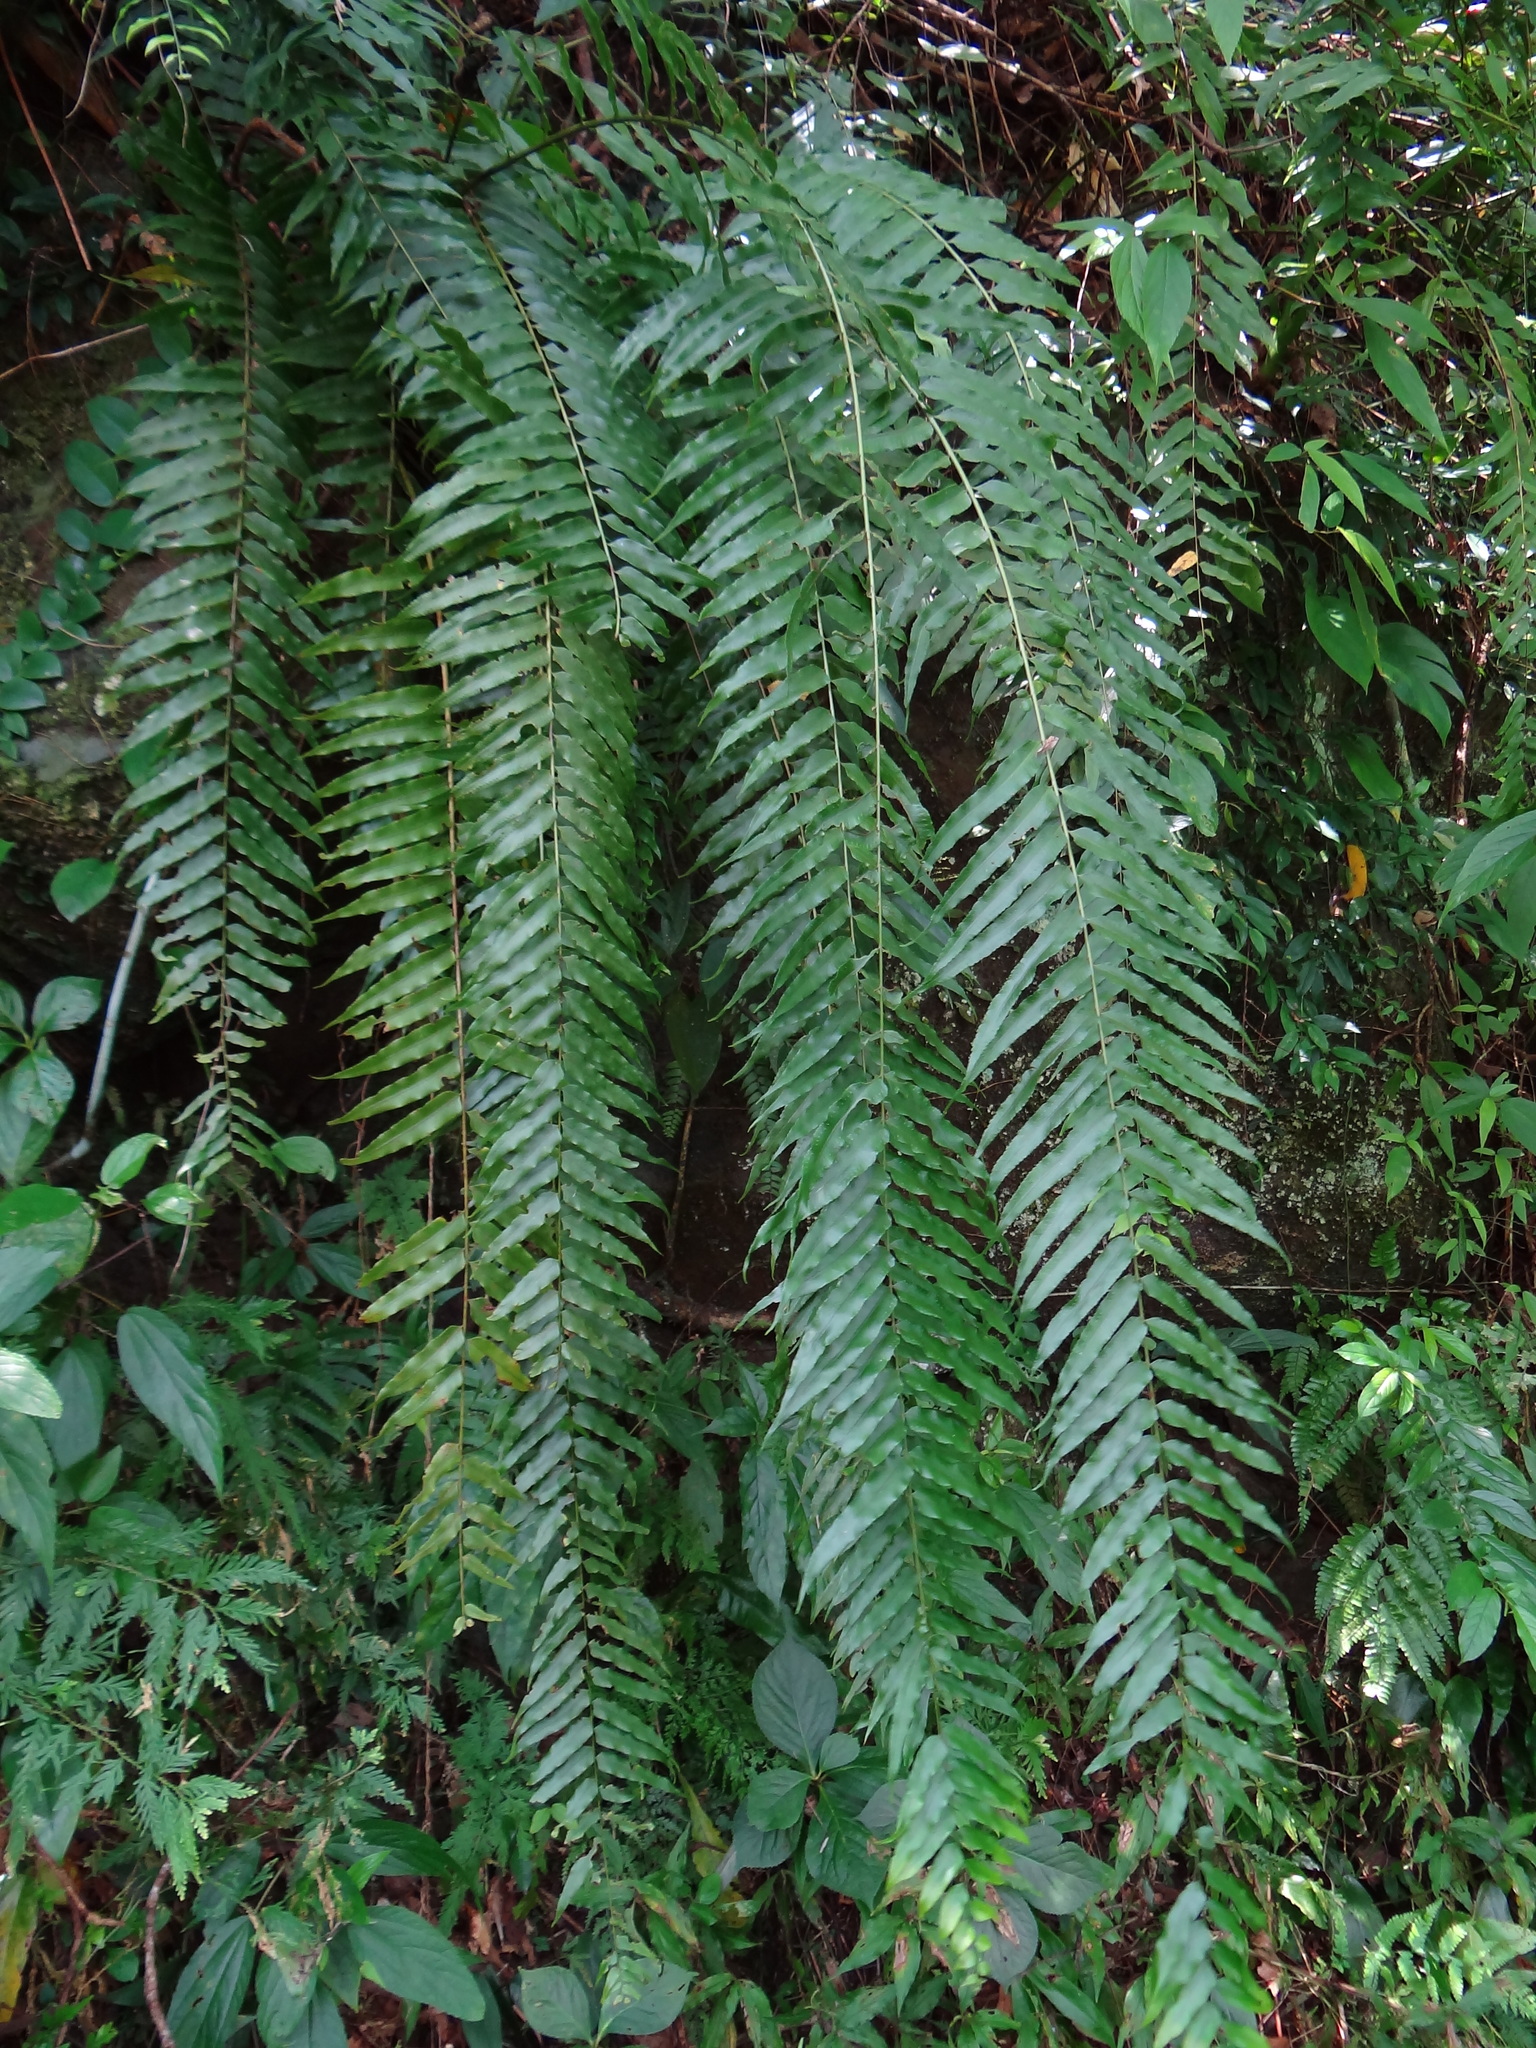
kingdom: Plantae
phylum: Tracheophyta
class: Polypodiopsida
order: Polypodiales
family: Nephrolepidaceae
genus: Nephrolepis
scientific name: Nephrolepis biserrata
